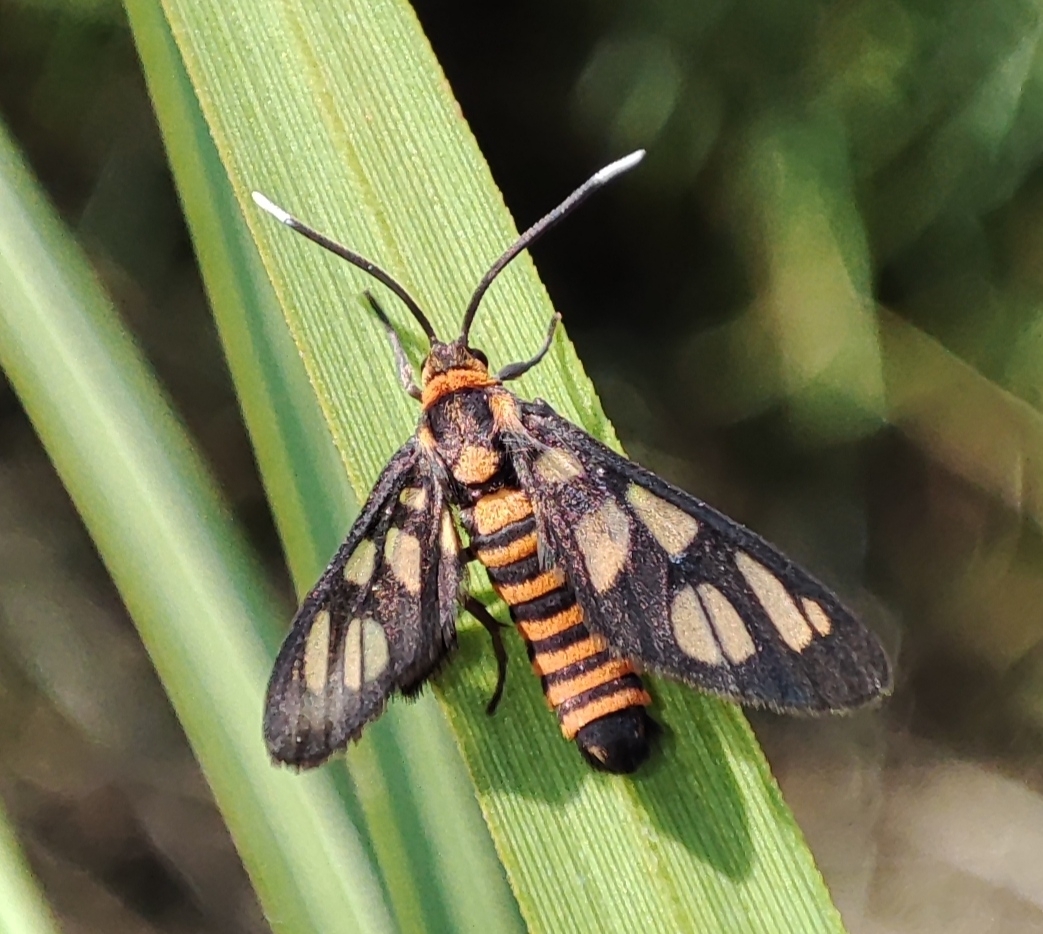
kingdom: Animalia
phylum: Arthropoda
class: Insecta
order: Lepidoptera
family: Erebidae
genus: Amata
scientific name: Amata huebneri
